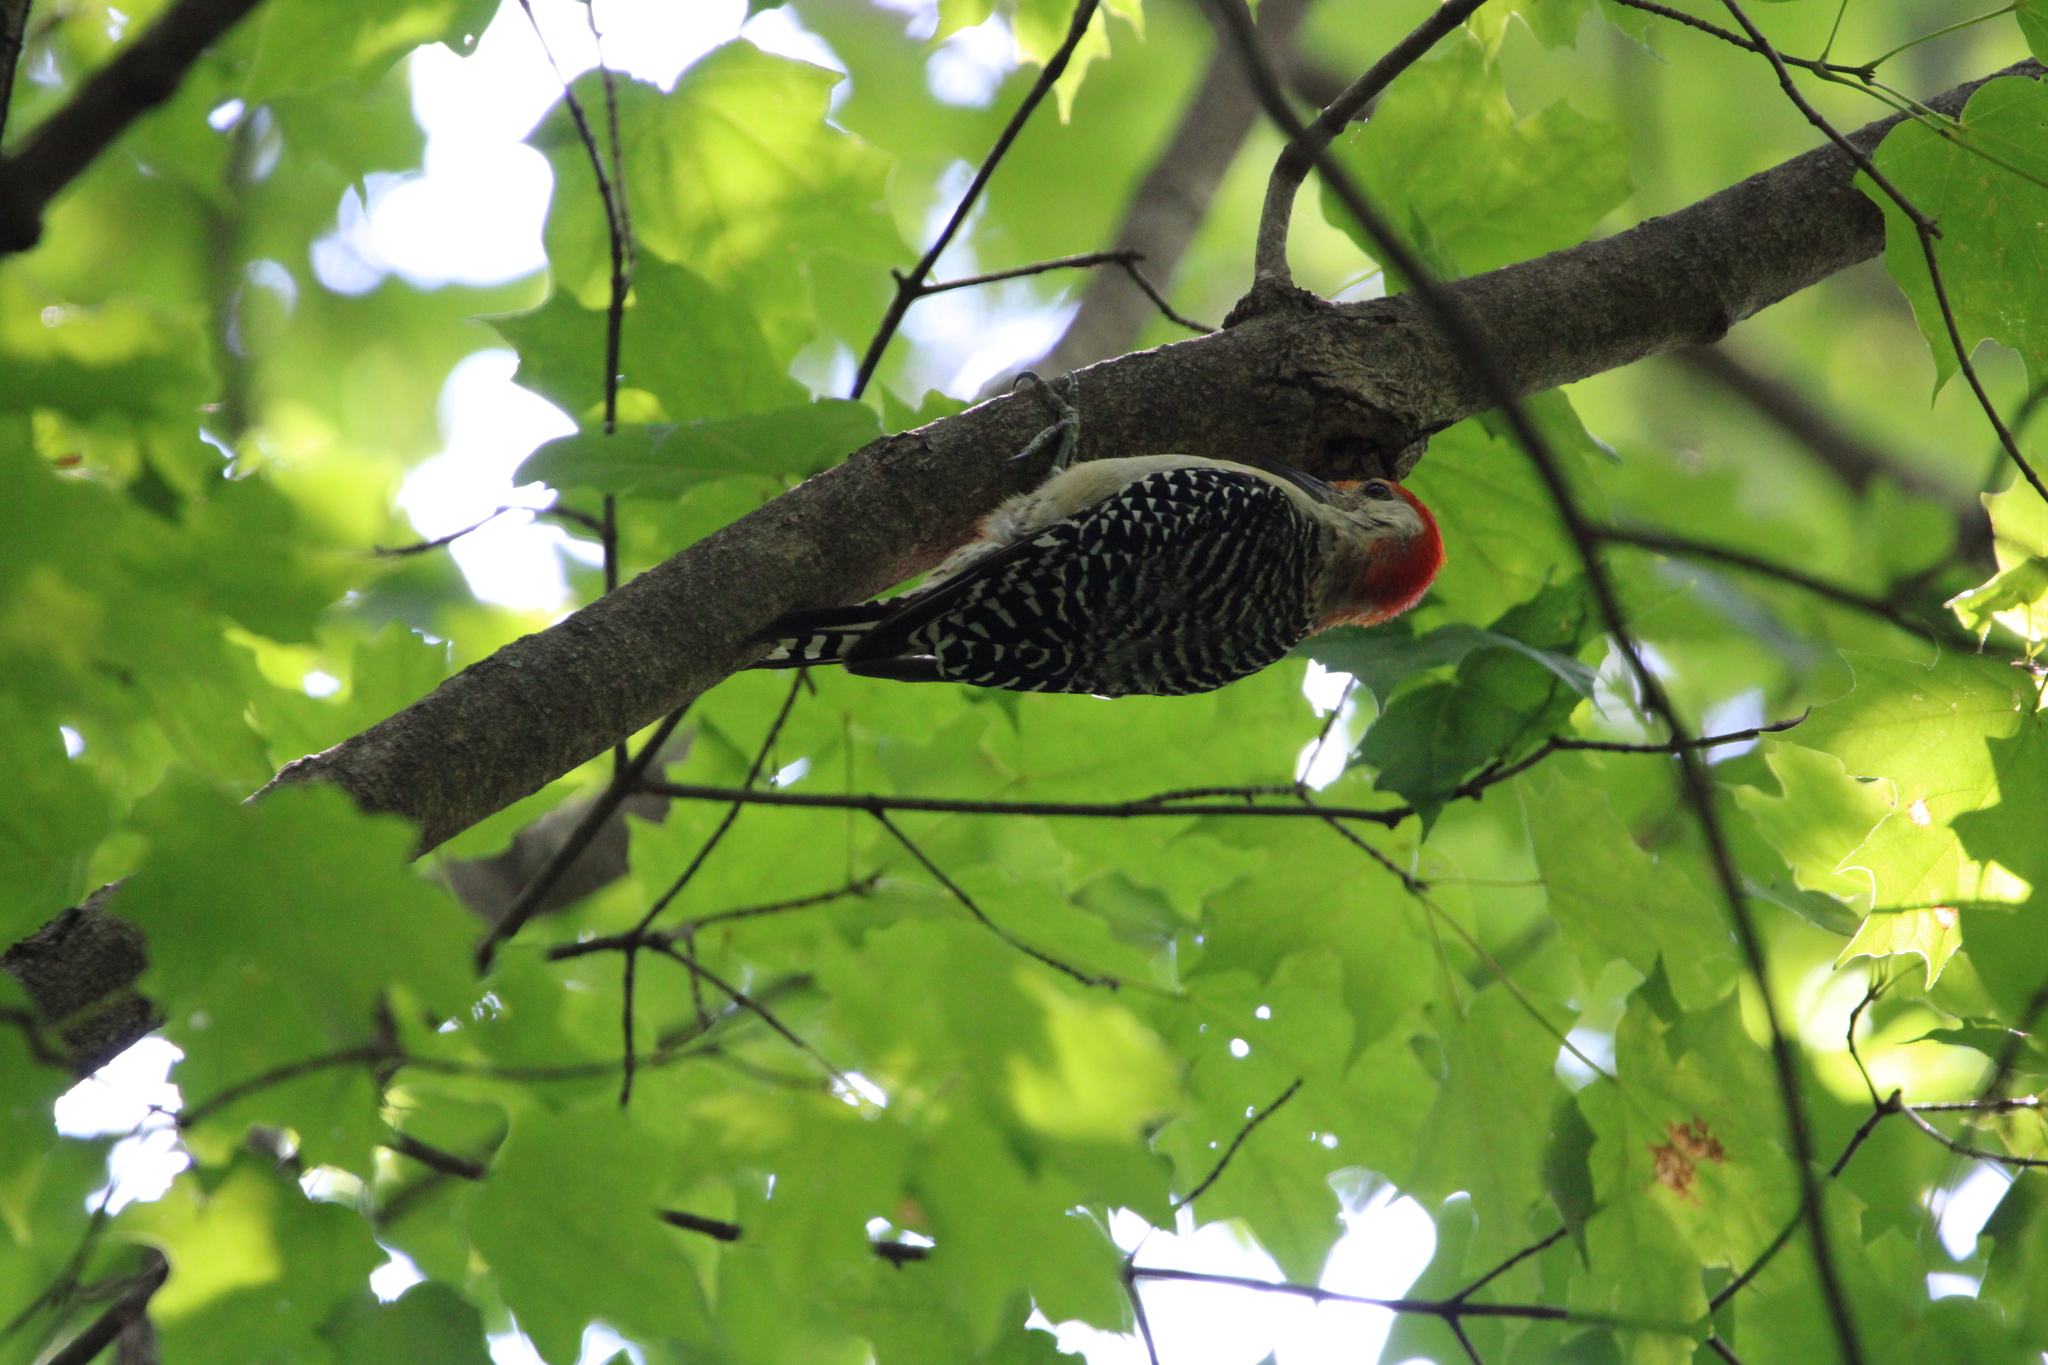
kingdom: Animalia
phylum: Chordata
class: Aves
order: Piciformes
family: Picidae
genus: Melanerpes
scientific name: Melanerpes carolinus
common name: Red-bellied woodpecker
